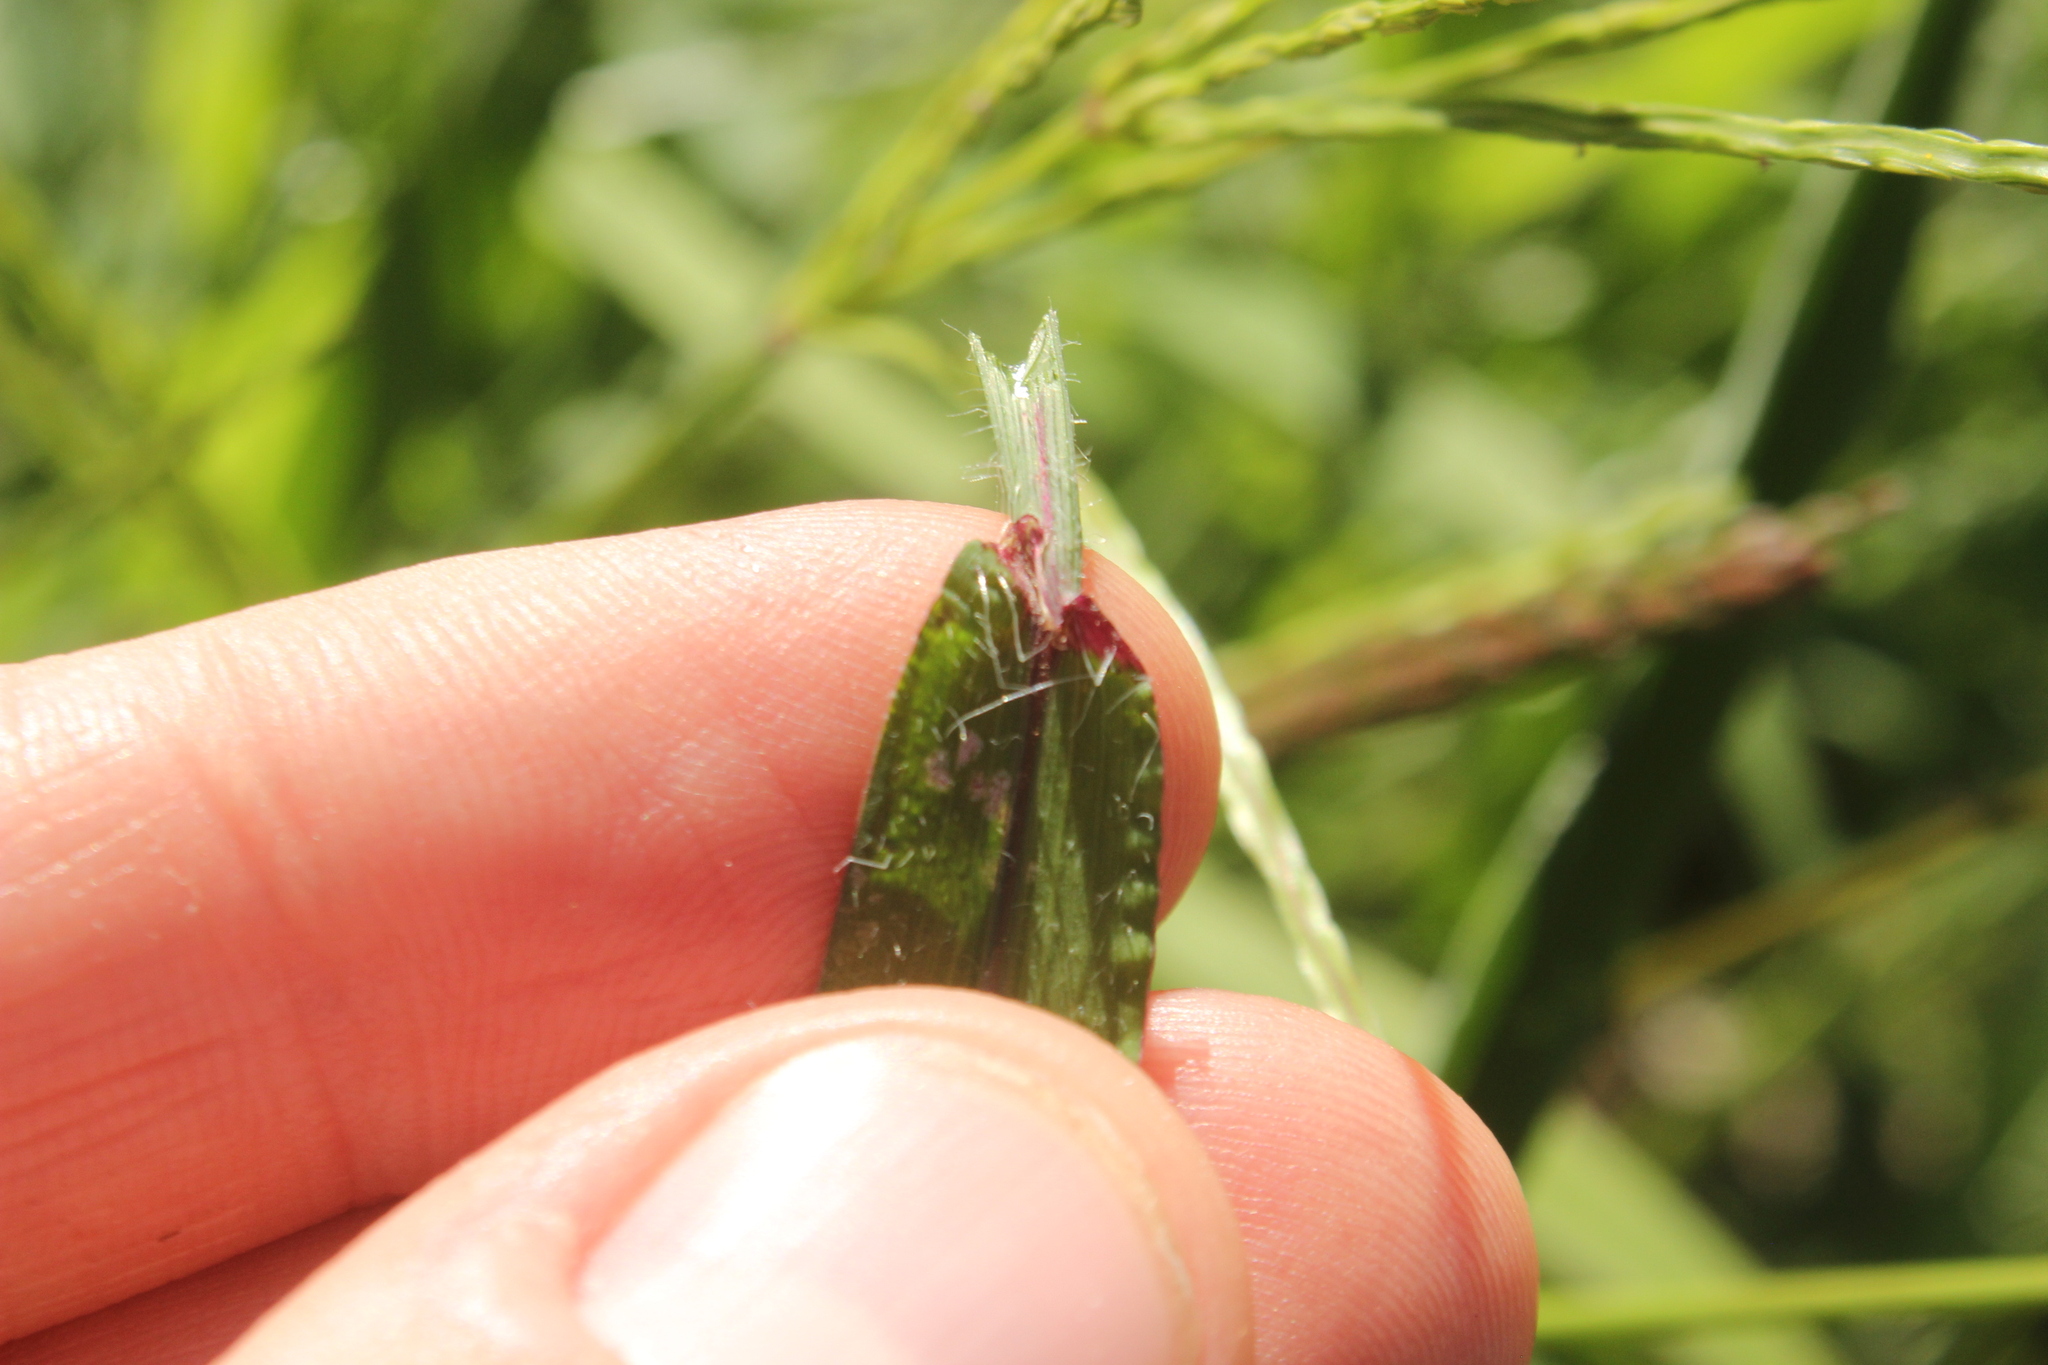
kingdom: Plantae
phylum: Tracheophyta
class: Liliopsida
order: Poales
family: Poaceae
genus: Digitaria
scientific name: Digitaria sanguinalis
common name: Hairy crabgrass
